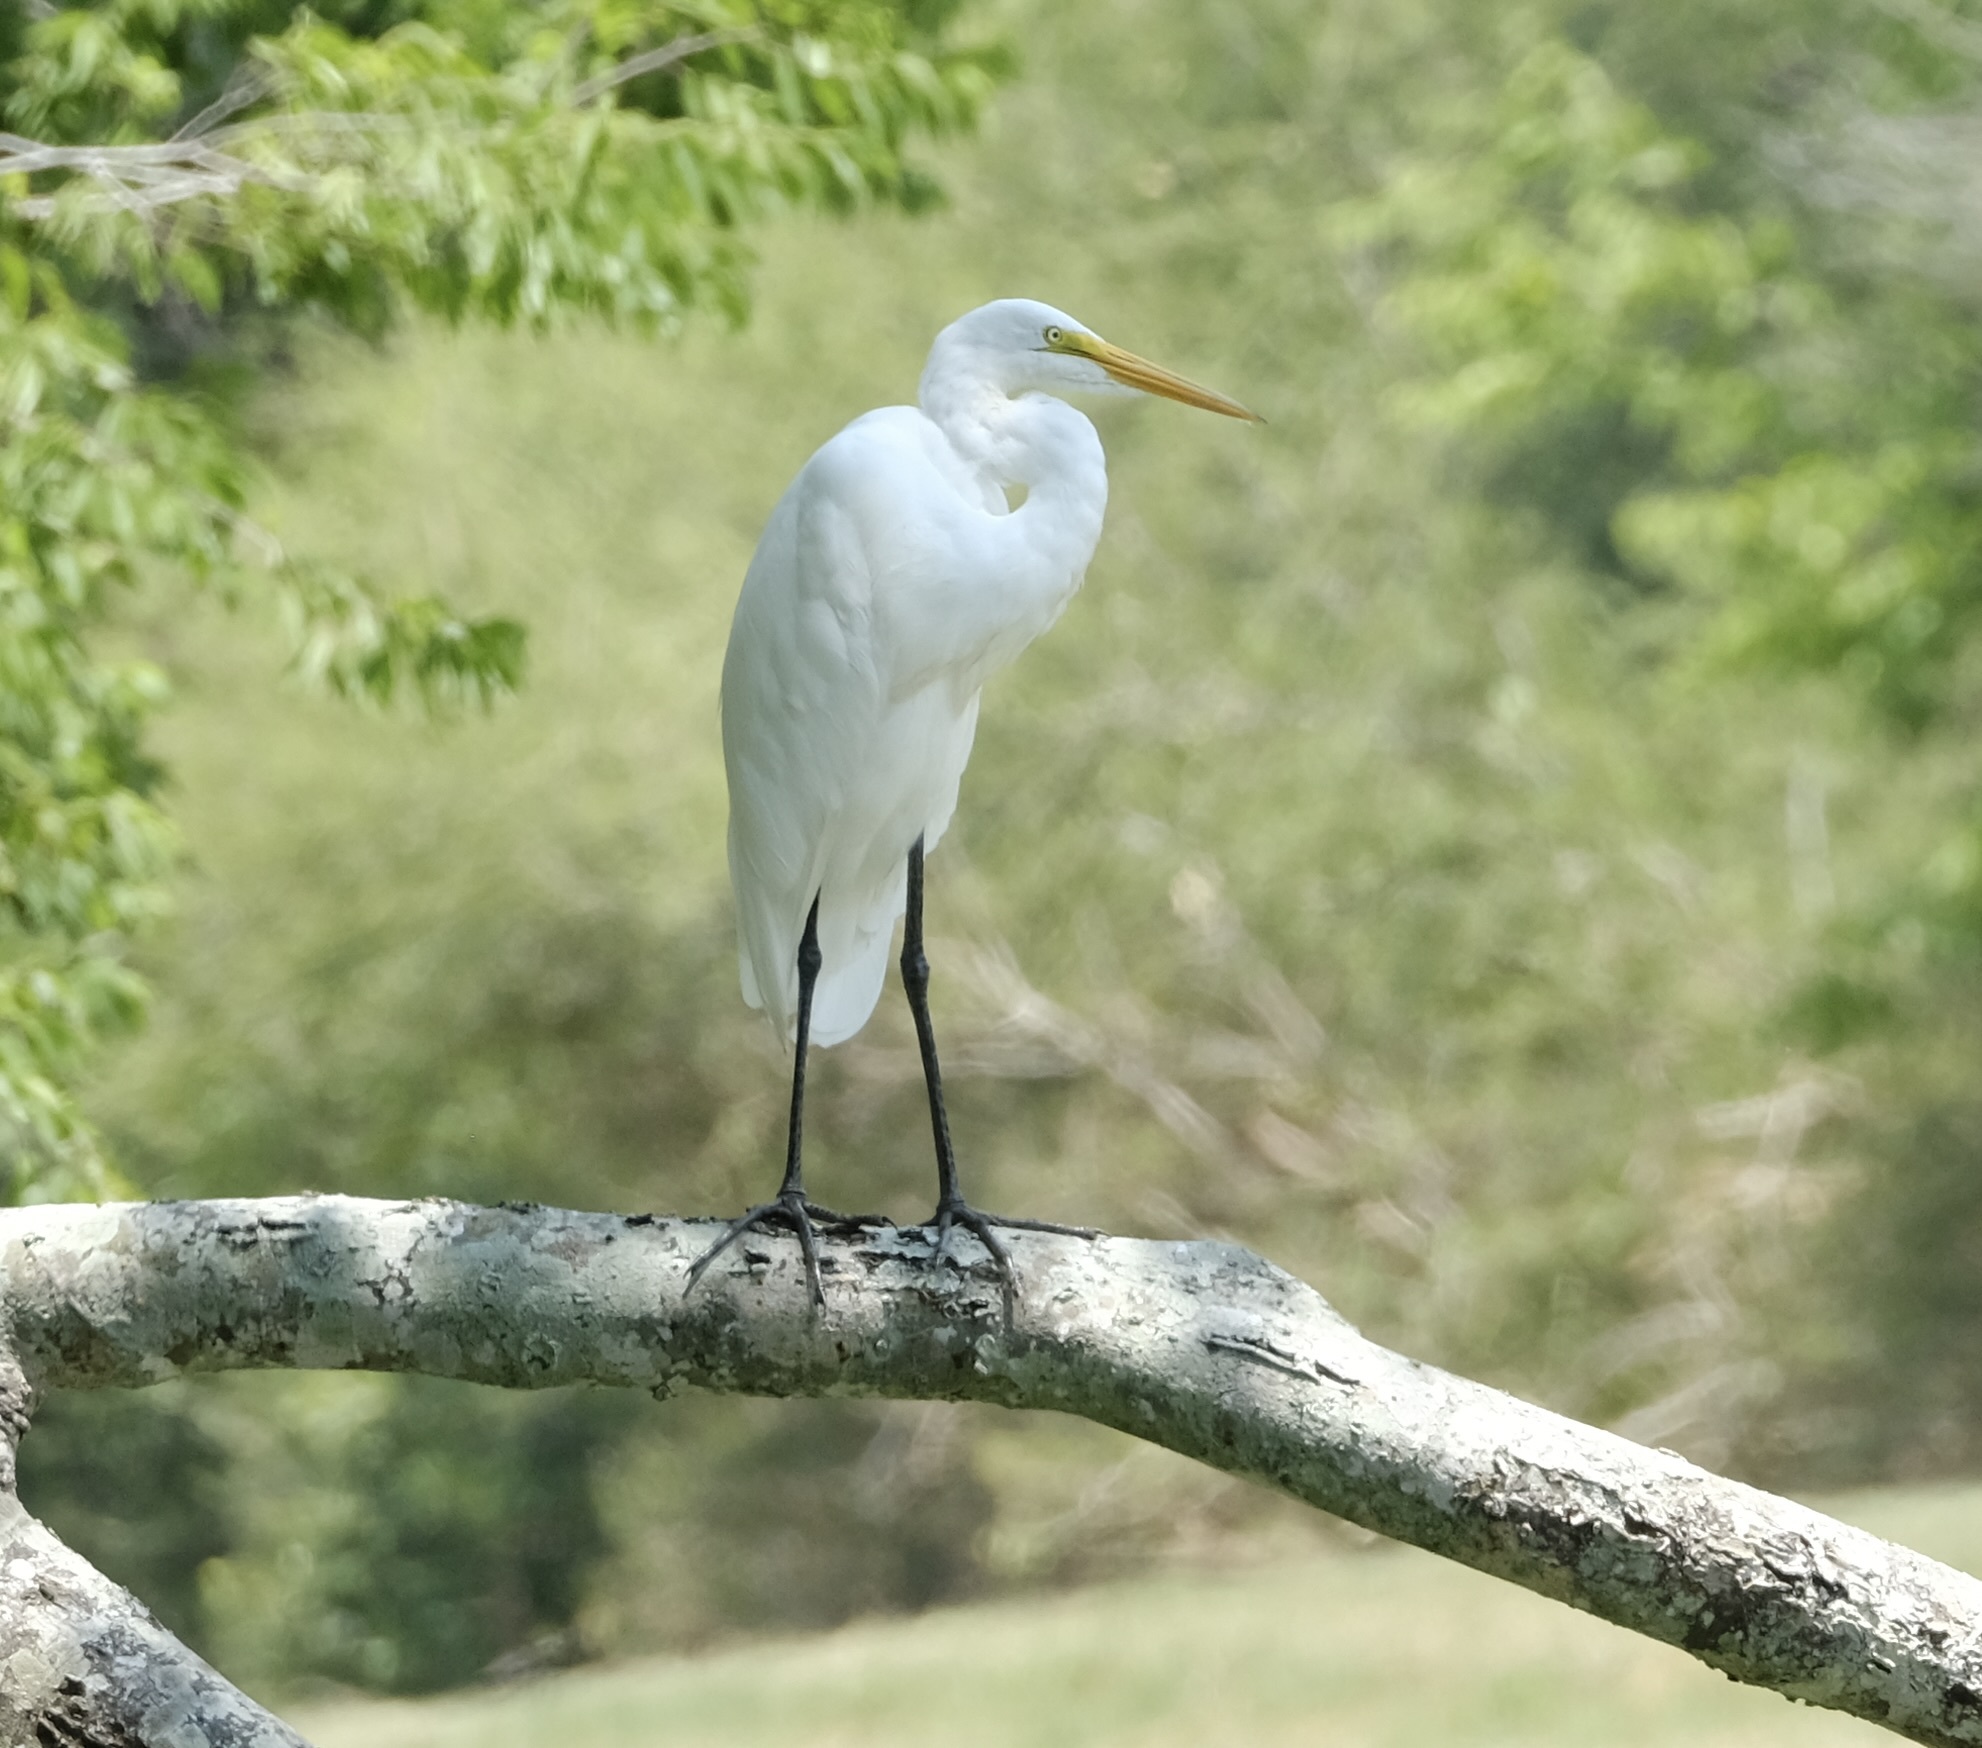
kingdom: Animalia
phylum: Chordata
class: Aves
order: Pelecaniformes
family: Ardeidae
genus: Ardea
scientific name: Ardea alba
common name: Great egret
